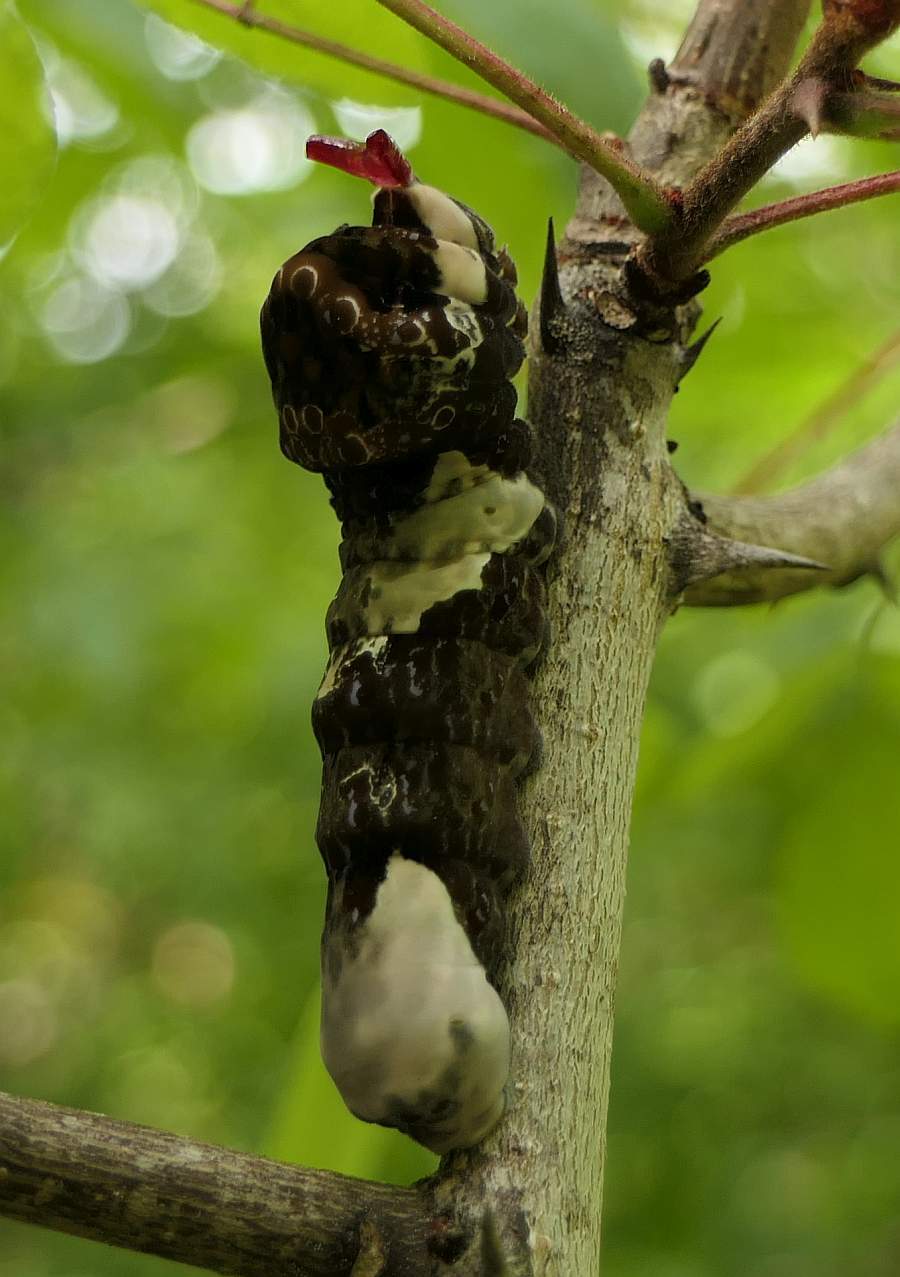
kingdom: Animalia
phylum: Arthropoda
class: Insecta
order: Lepidoptera
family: Papilionidae
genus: Papilio
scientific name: Papilio cresphontes
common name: Giant swallowtail
